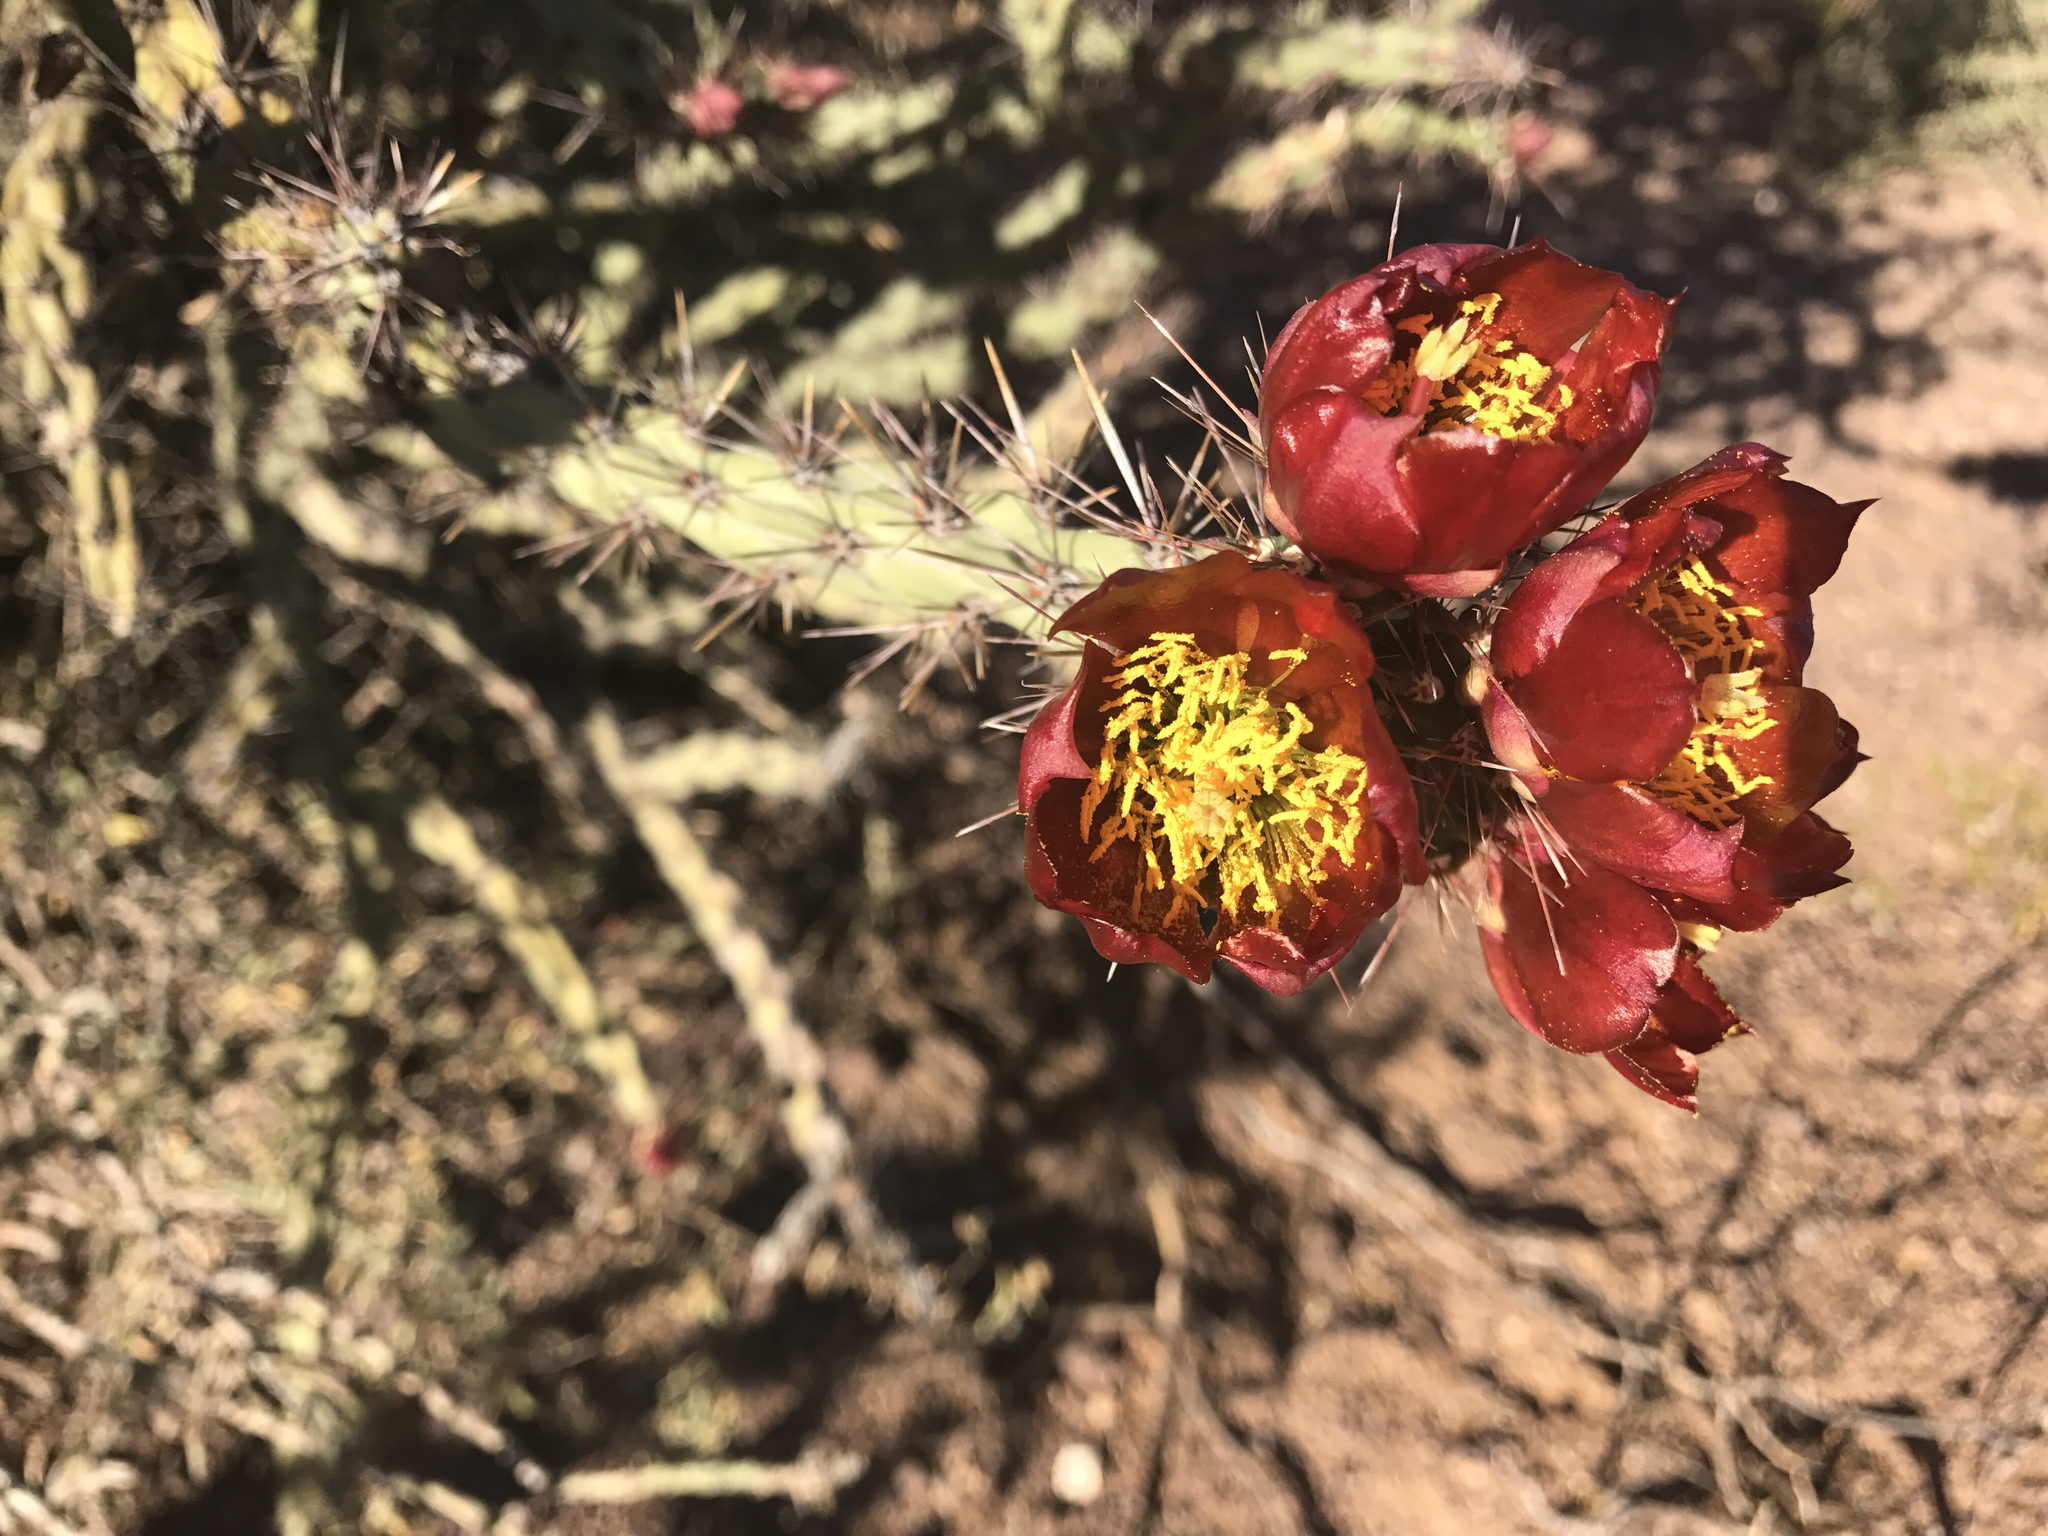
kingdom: Plantae
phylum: Tracheophyta
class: Magnoliopsida
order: Caryophyllales
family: Cactaceae
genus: Cylindropuntia
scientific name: Cylindropuntia thurberi
